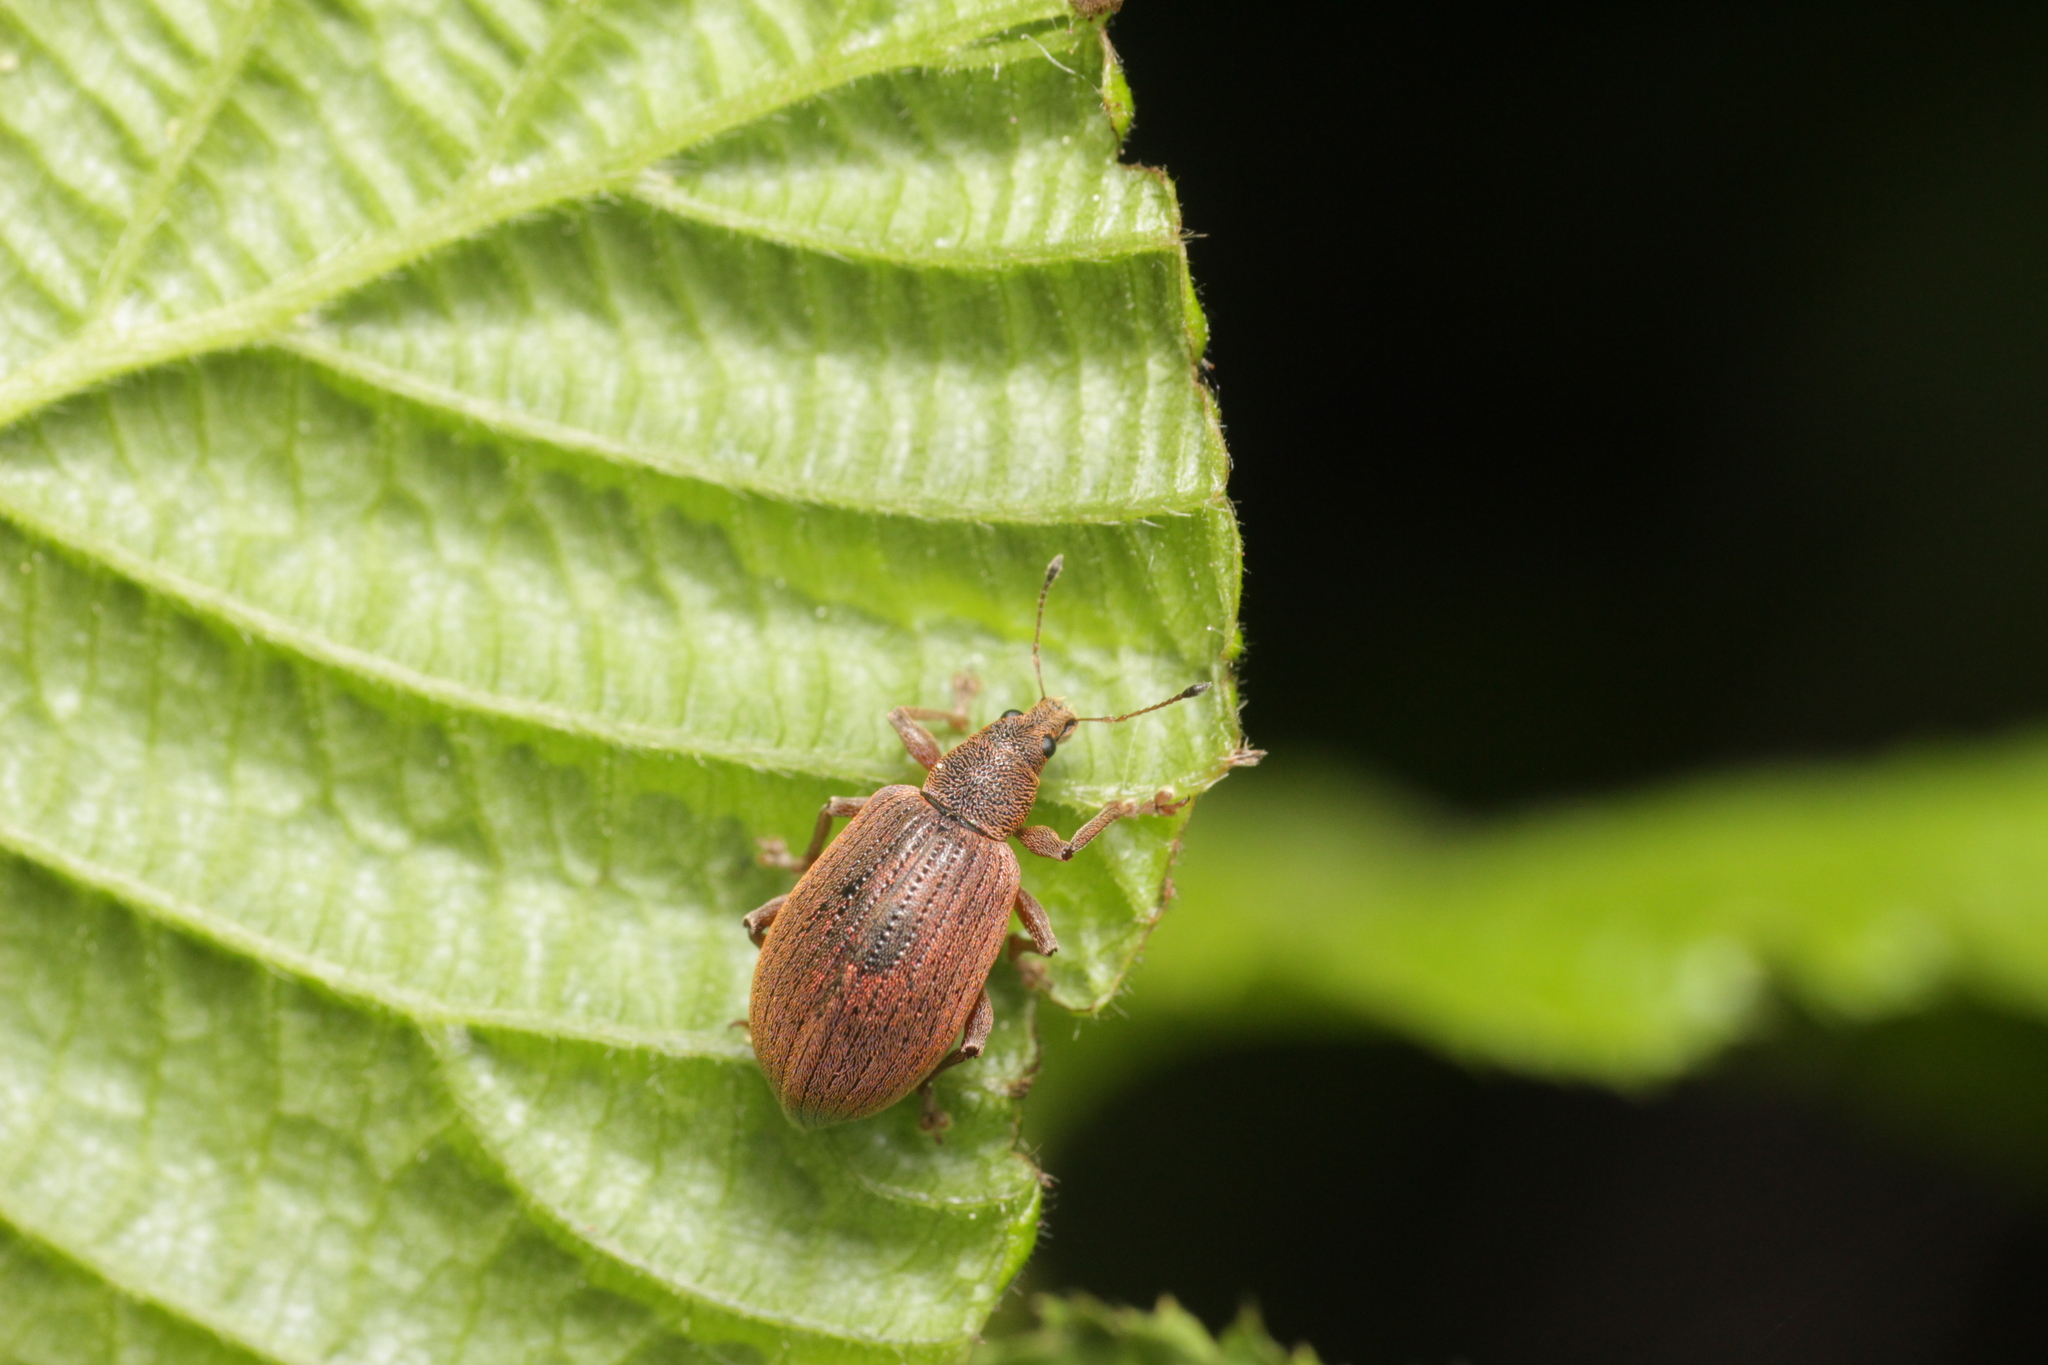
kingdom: Animalia
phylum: Arthropoda
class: Insecta
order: Coleoptera
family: Curculionidae
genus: Polydrusus
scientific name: Polydrusus mollis
